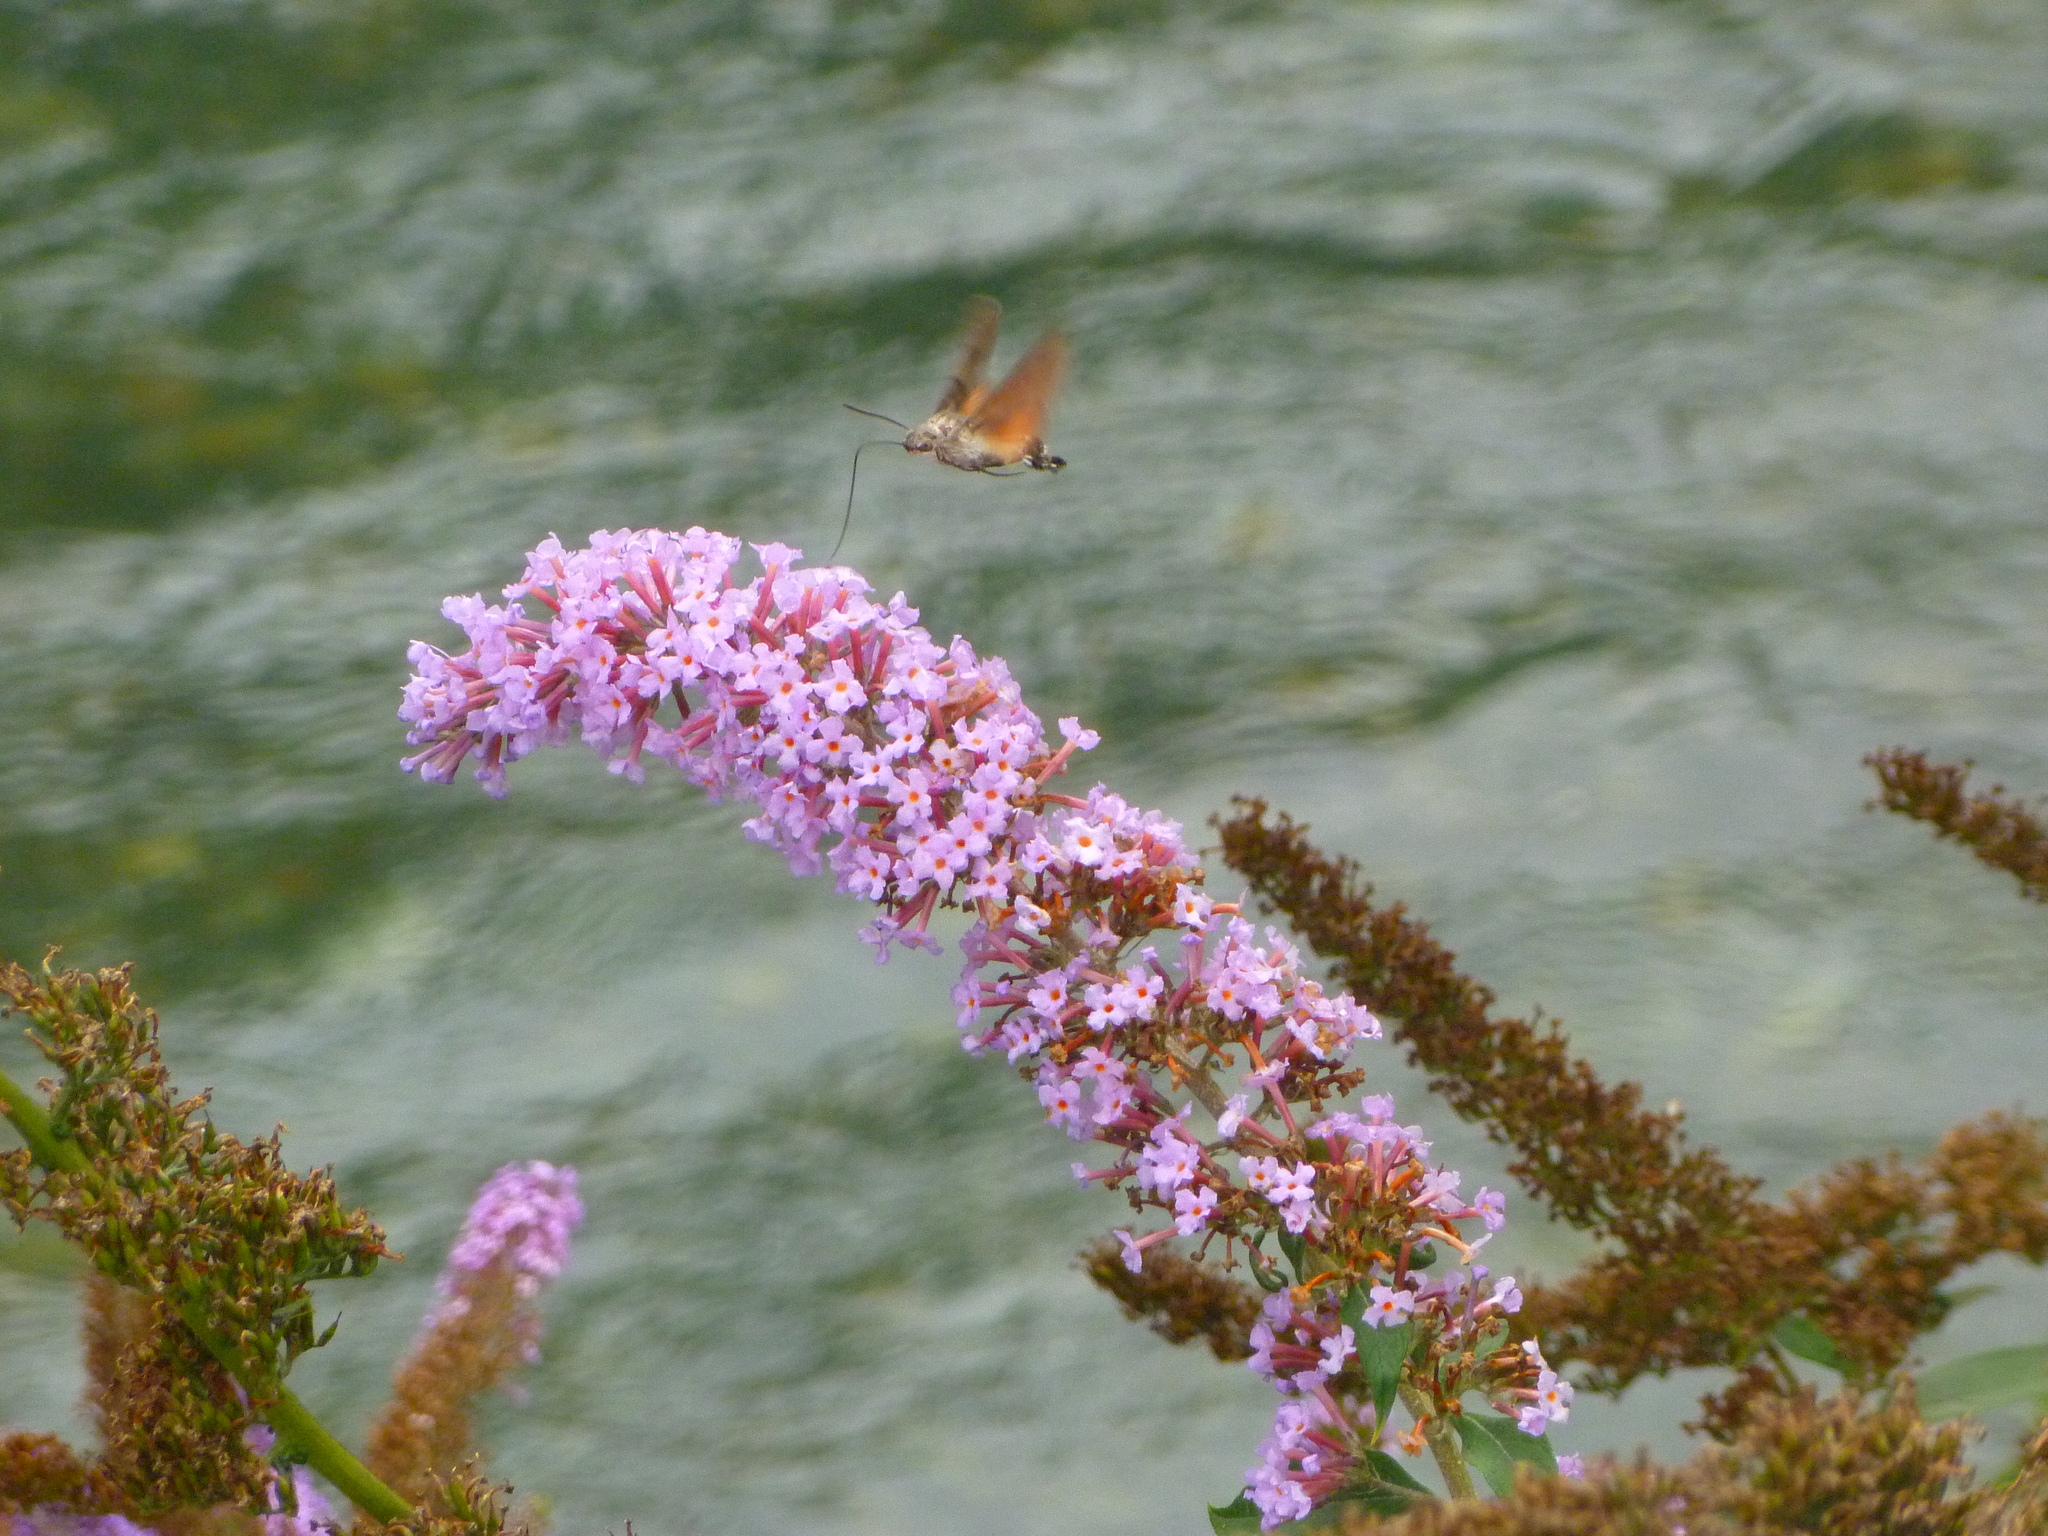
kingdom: Animalia
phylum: Arthropoda
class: Insecta
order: Lepidoptera
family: Sphingidae
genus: Macroglossum
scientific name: Macroglossum stellatarum
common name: Humming-bird hawk-moth
